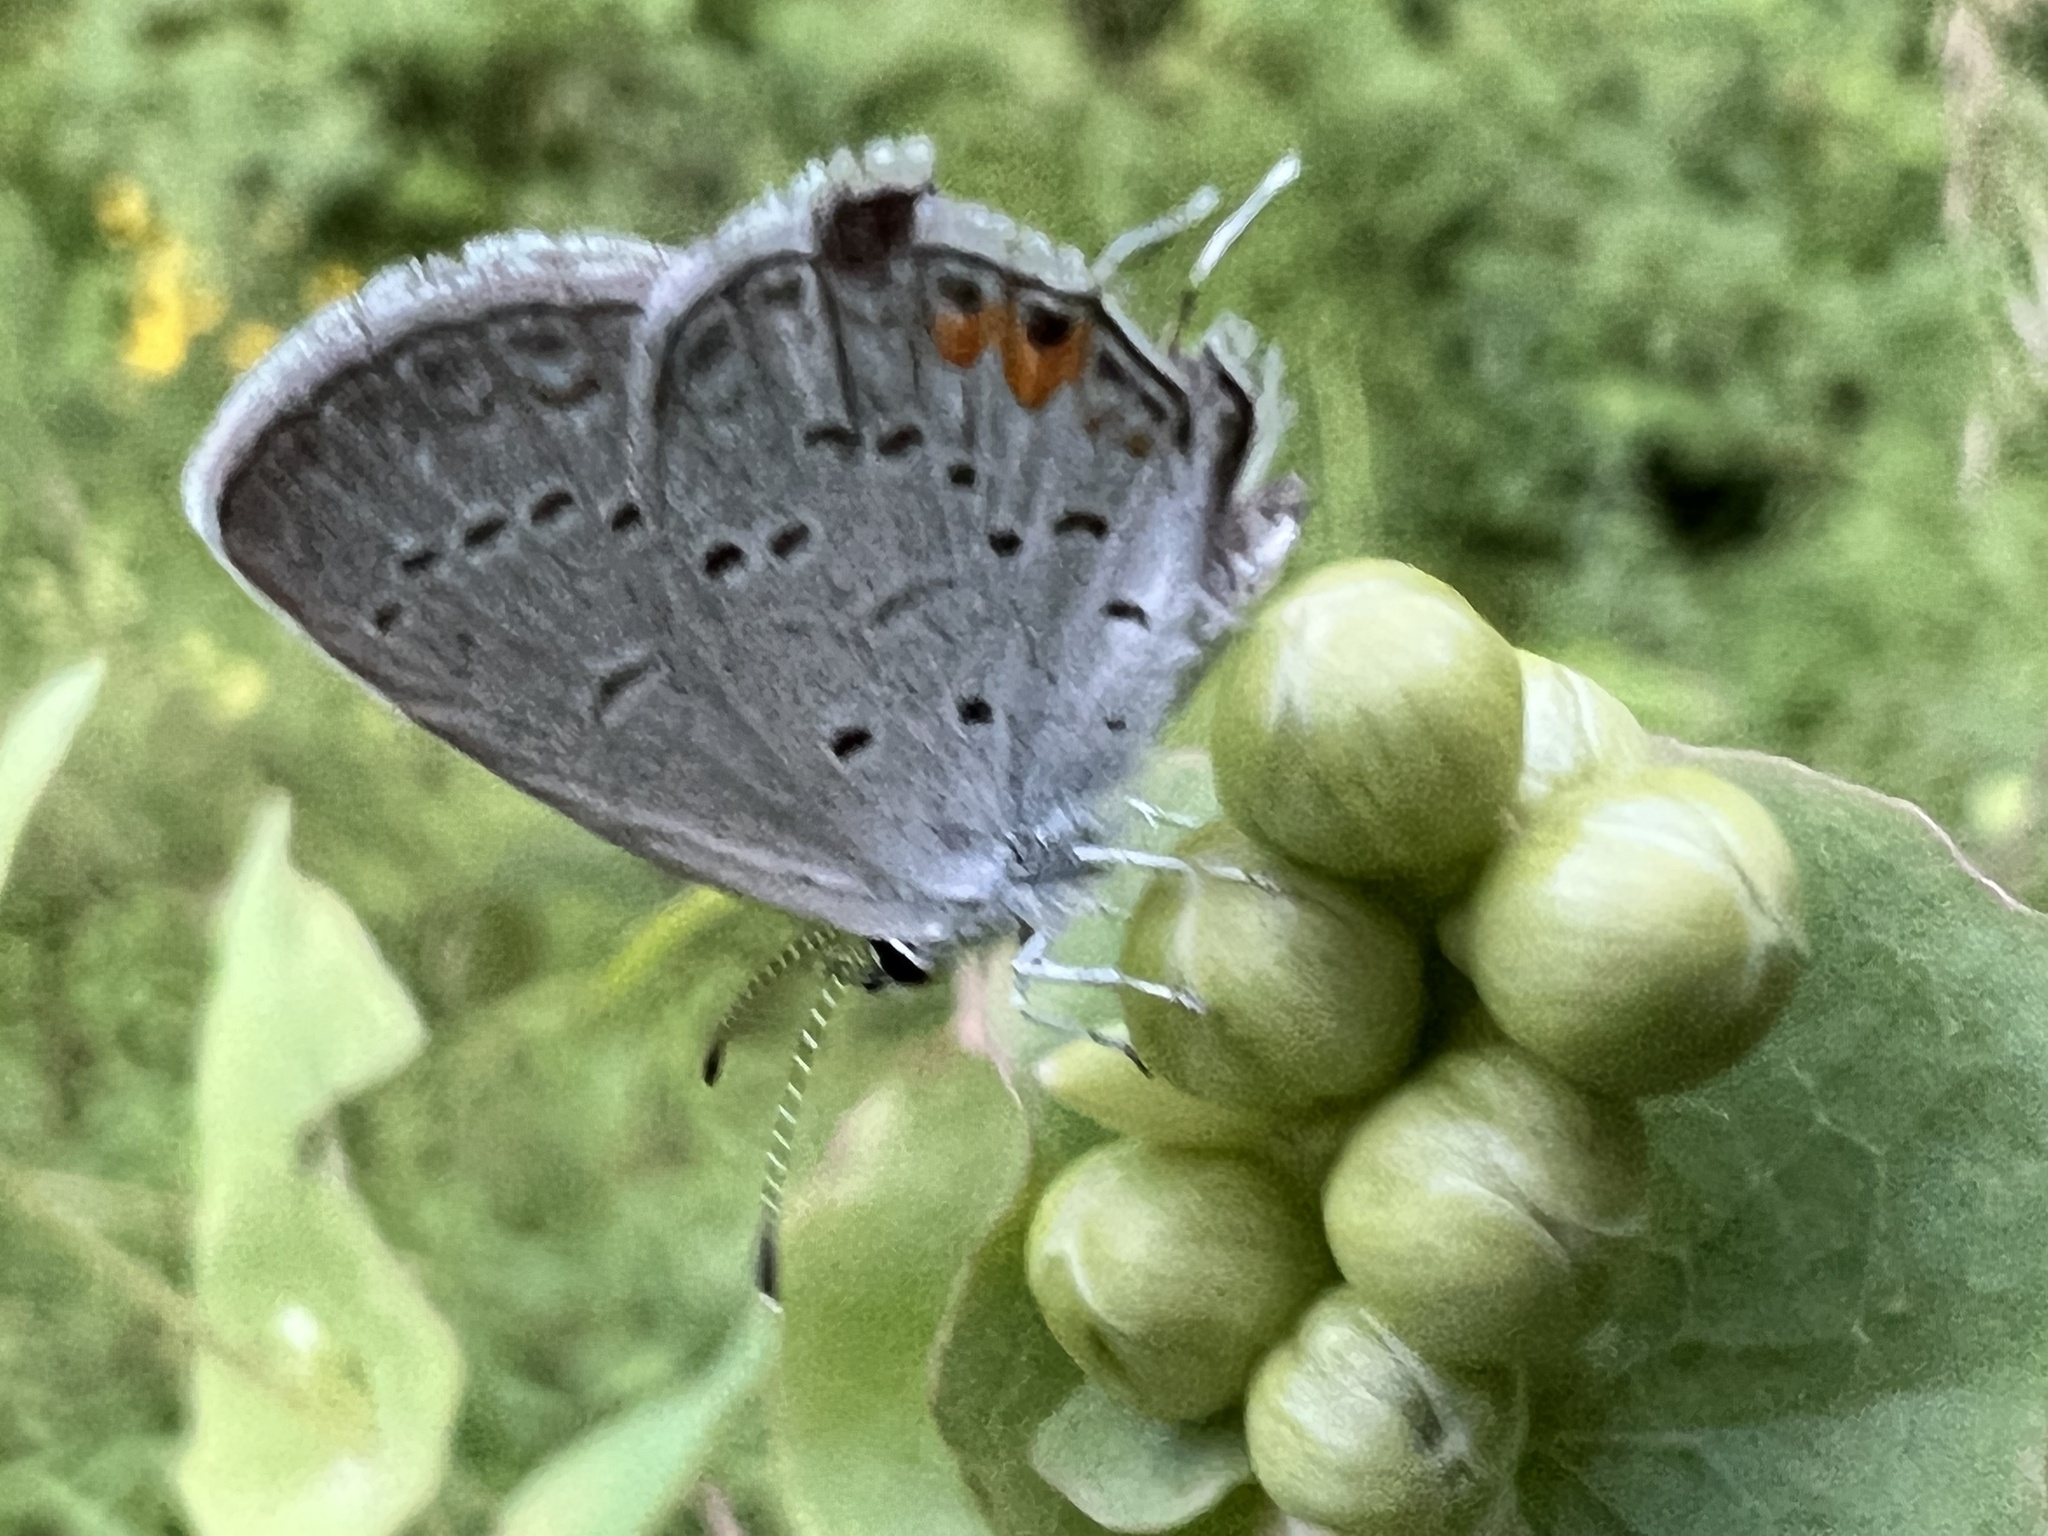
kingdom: Animalia
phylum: Arthropoda
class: Insecta
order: Lepidoptera
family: Lycaenidae
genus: Elkalyce
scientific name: Elkalyce comyntas
